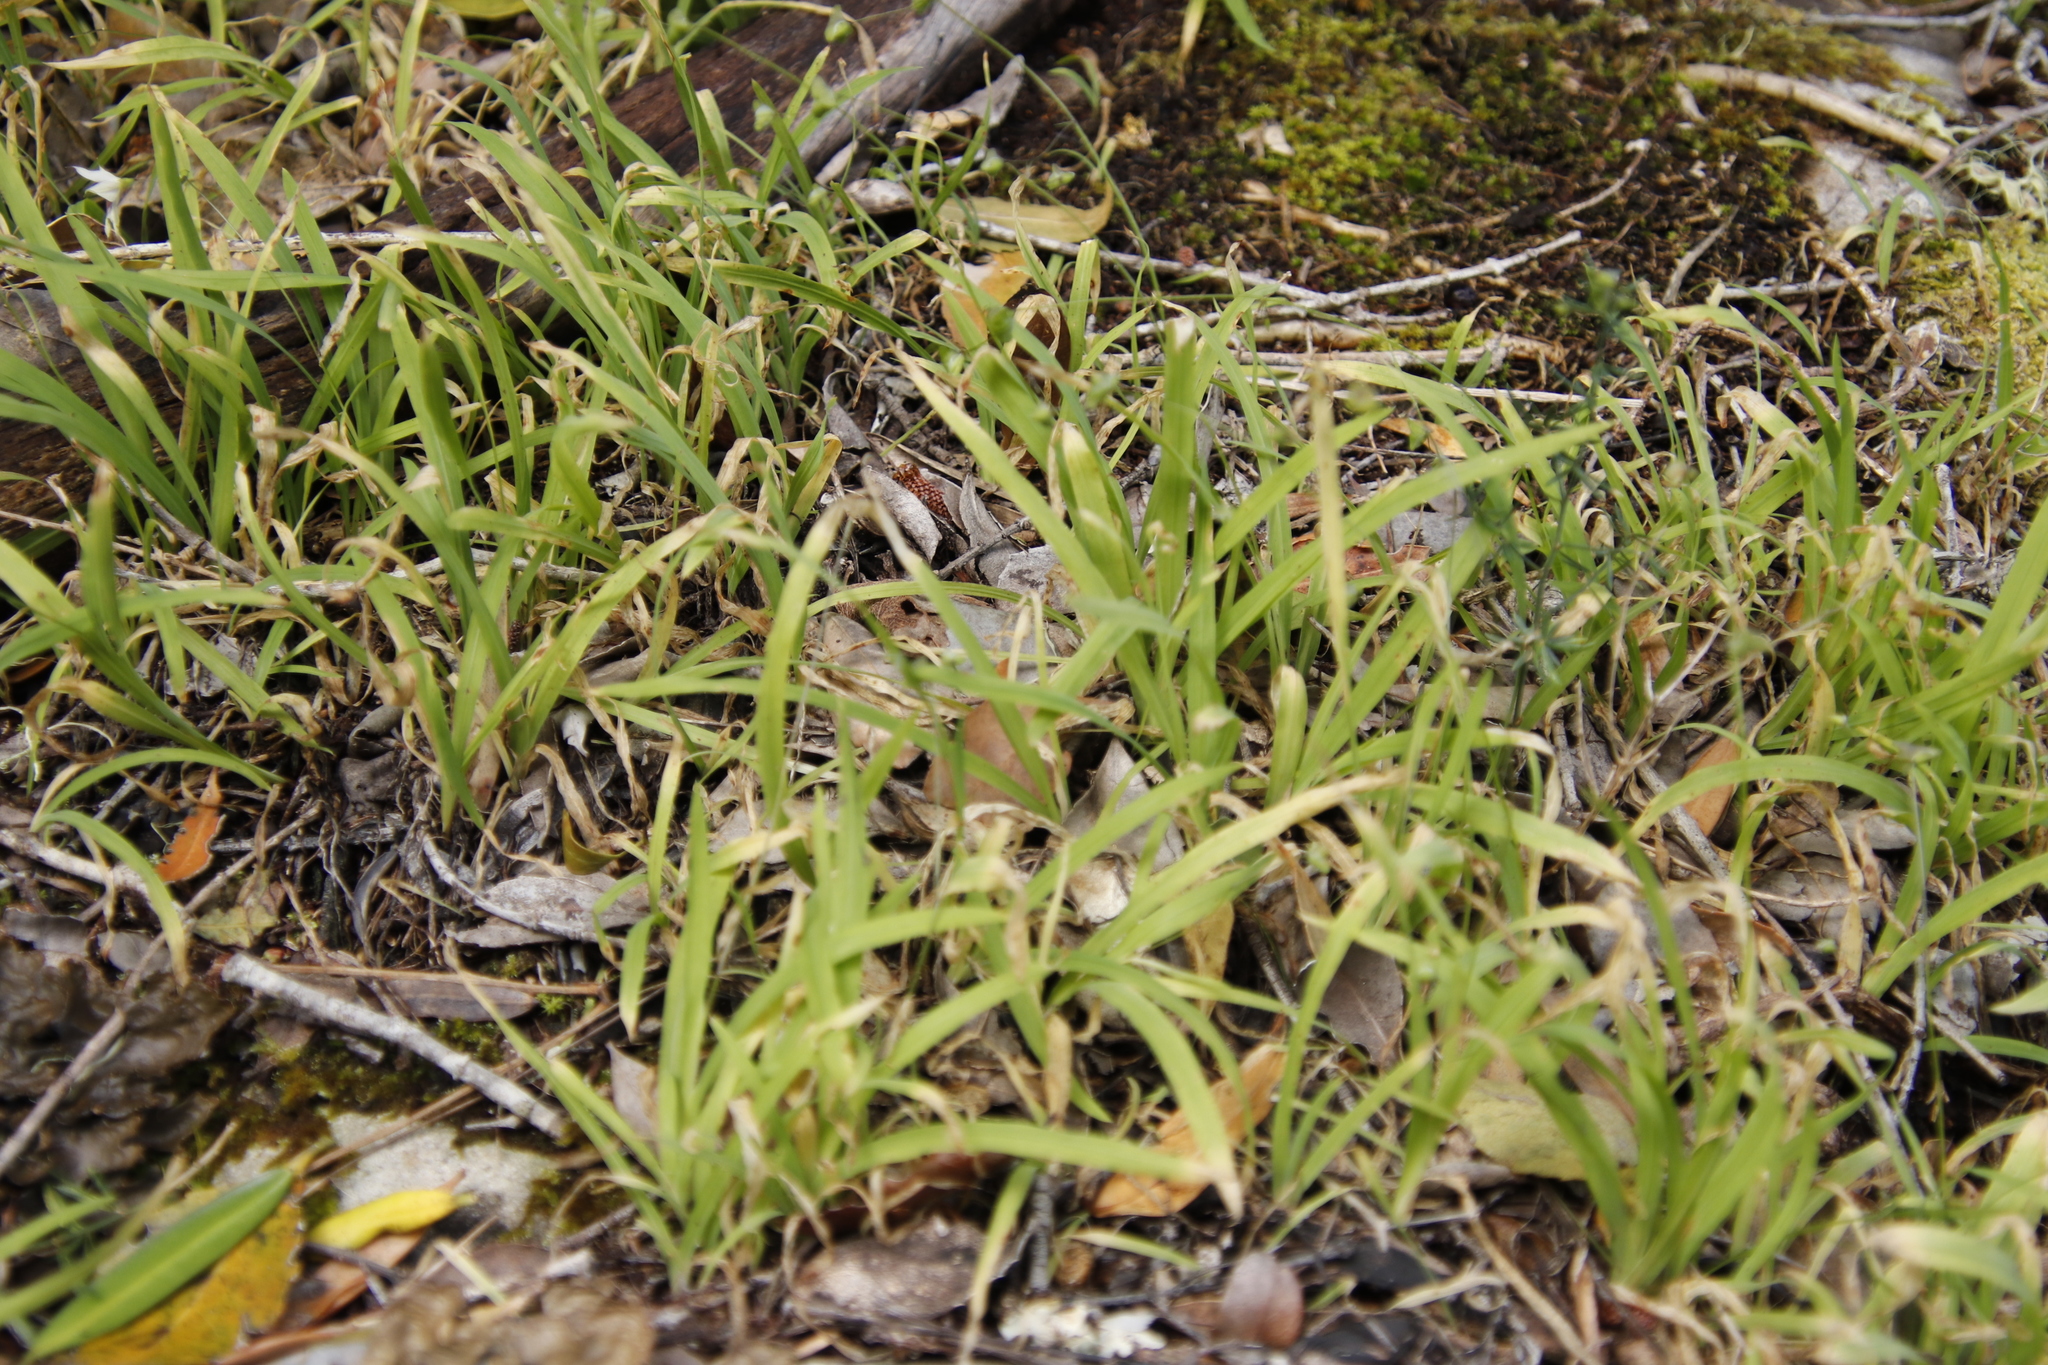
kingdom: Plantae
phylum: Tracheophyta
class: Liliopsida
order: Asparagales
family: Iridaceae
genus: Melasphaerula
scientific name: Melasphaerula graminea
